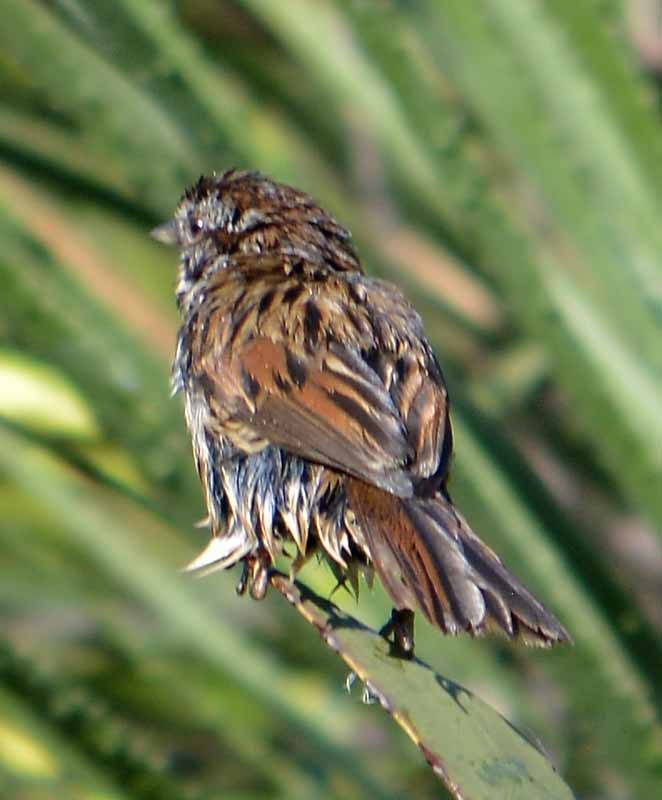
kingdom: Animalia
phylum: Chordata
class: Aves
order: Passeriformes
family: Passerellidae
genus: Melospiza
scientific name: Melospiza melodia
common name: Song sparrow
